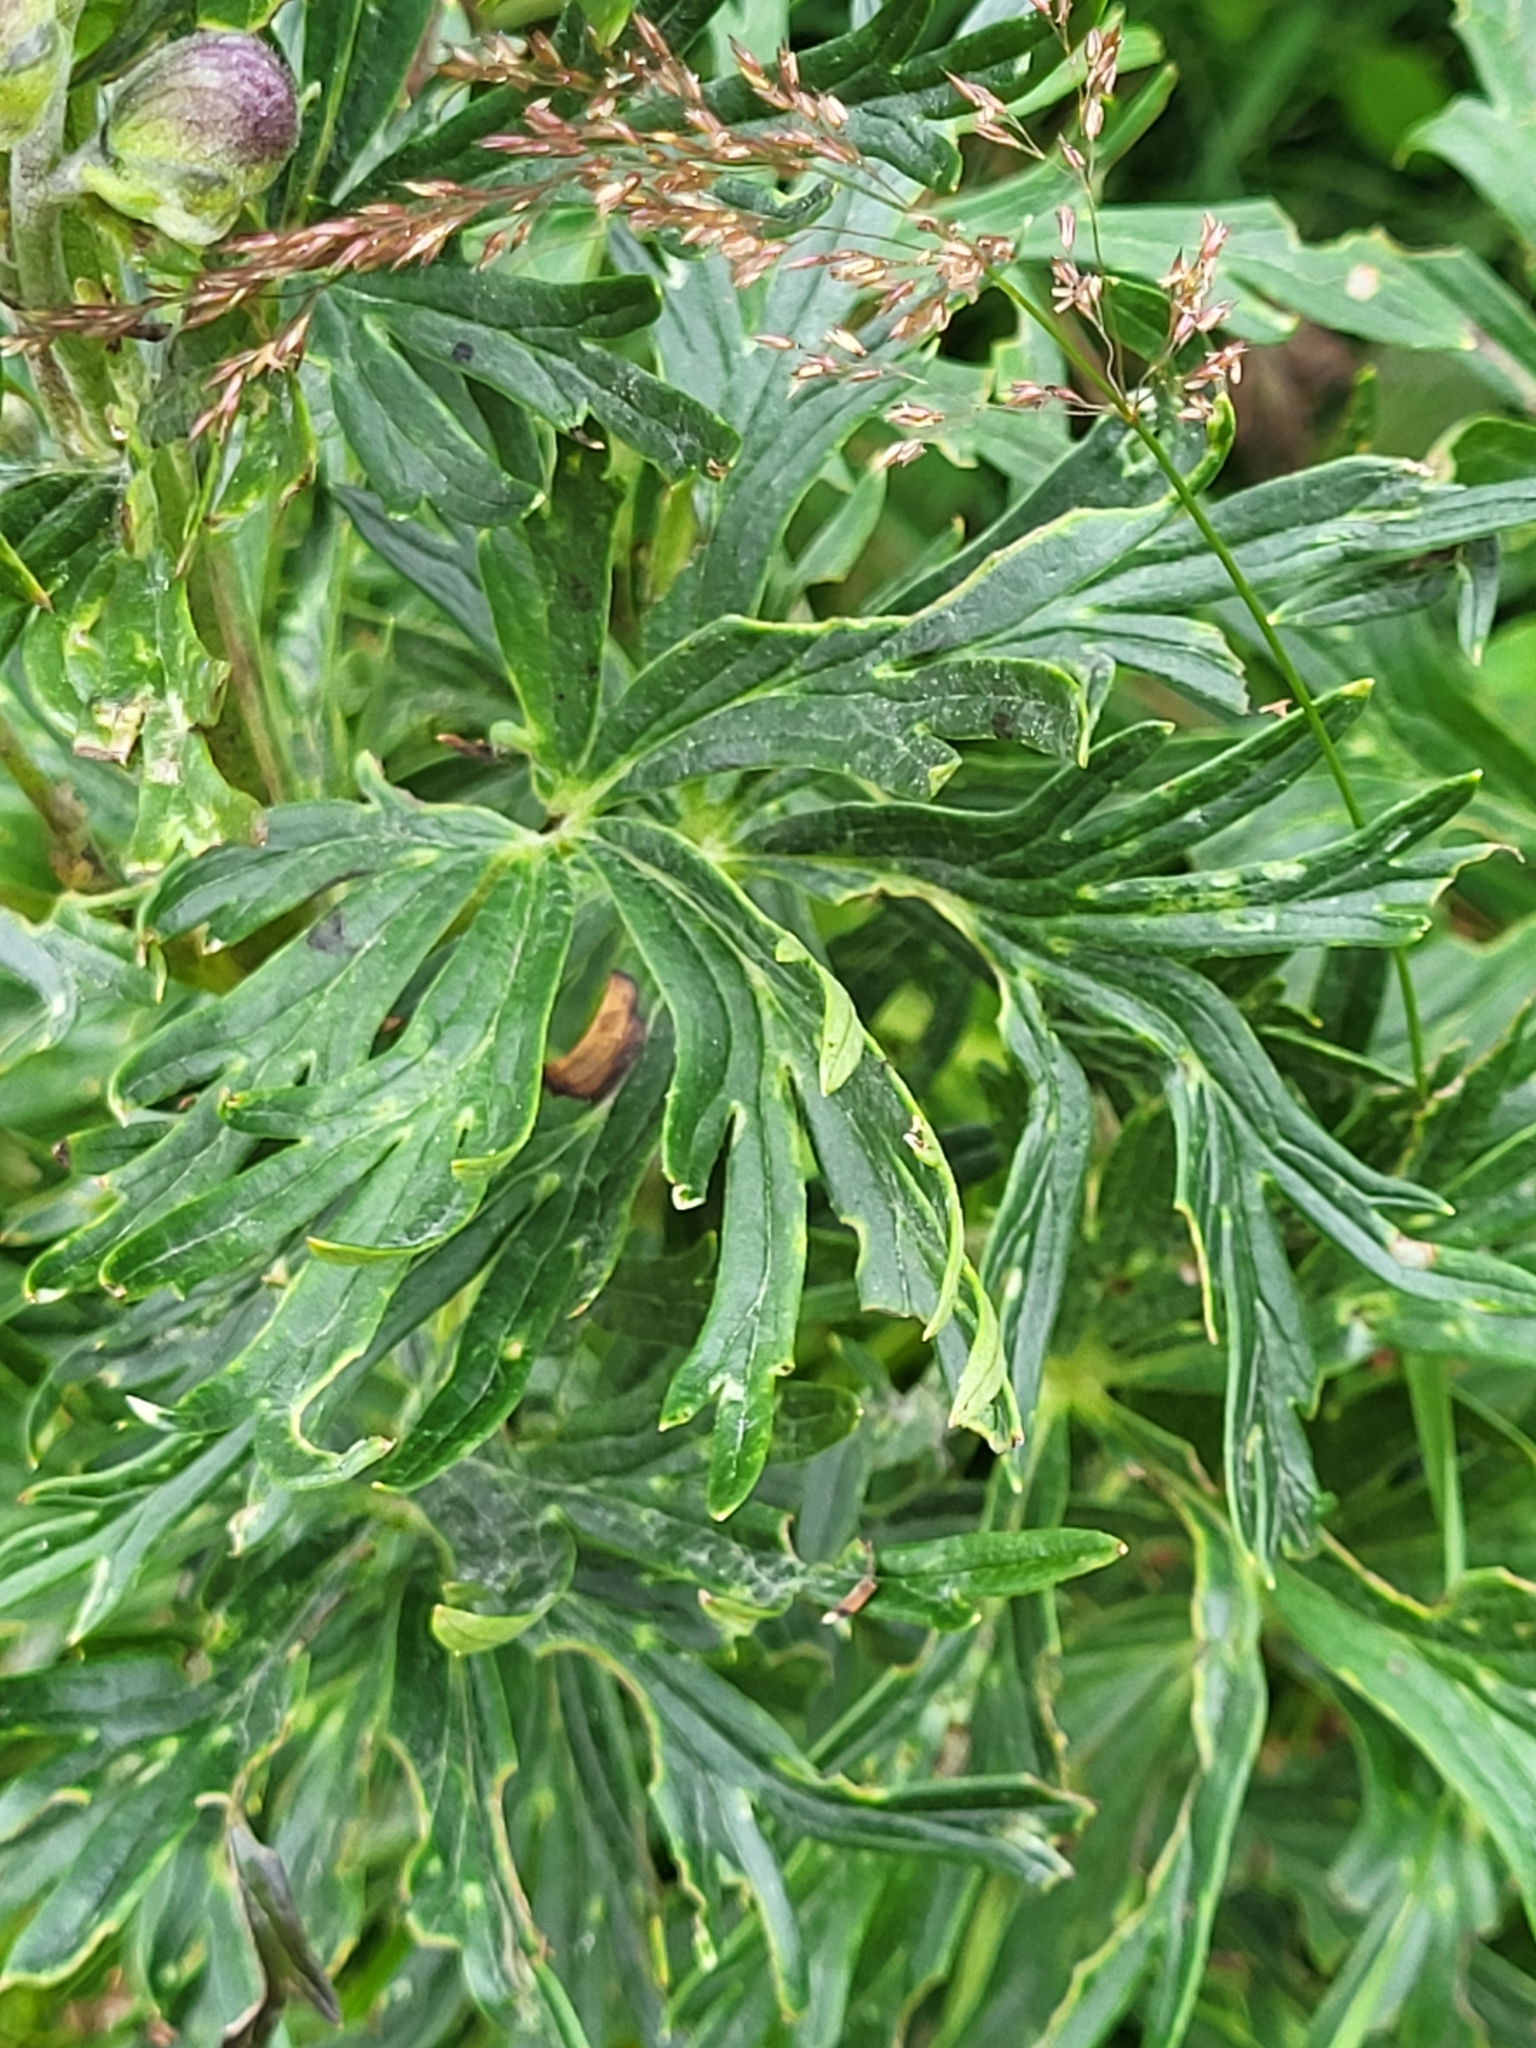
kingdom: Plantae
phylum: Tracheophyta
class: Magnoliopsida
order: Ranunculales
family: Ranunculaceae
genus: Aconitum
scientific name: Aconitum napellus
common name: Garden monkshood
